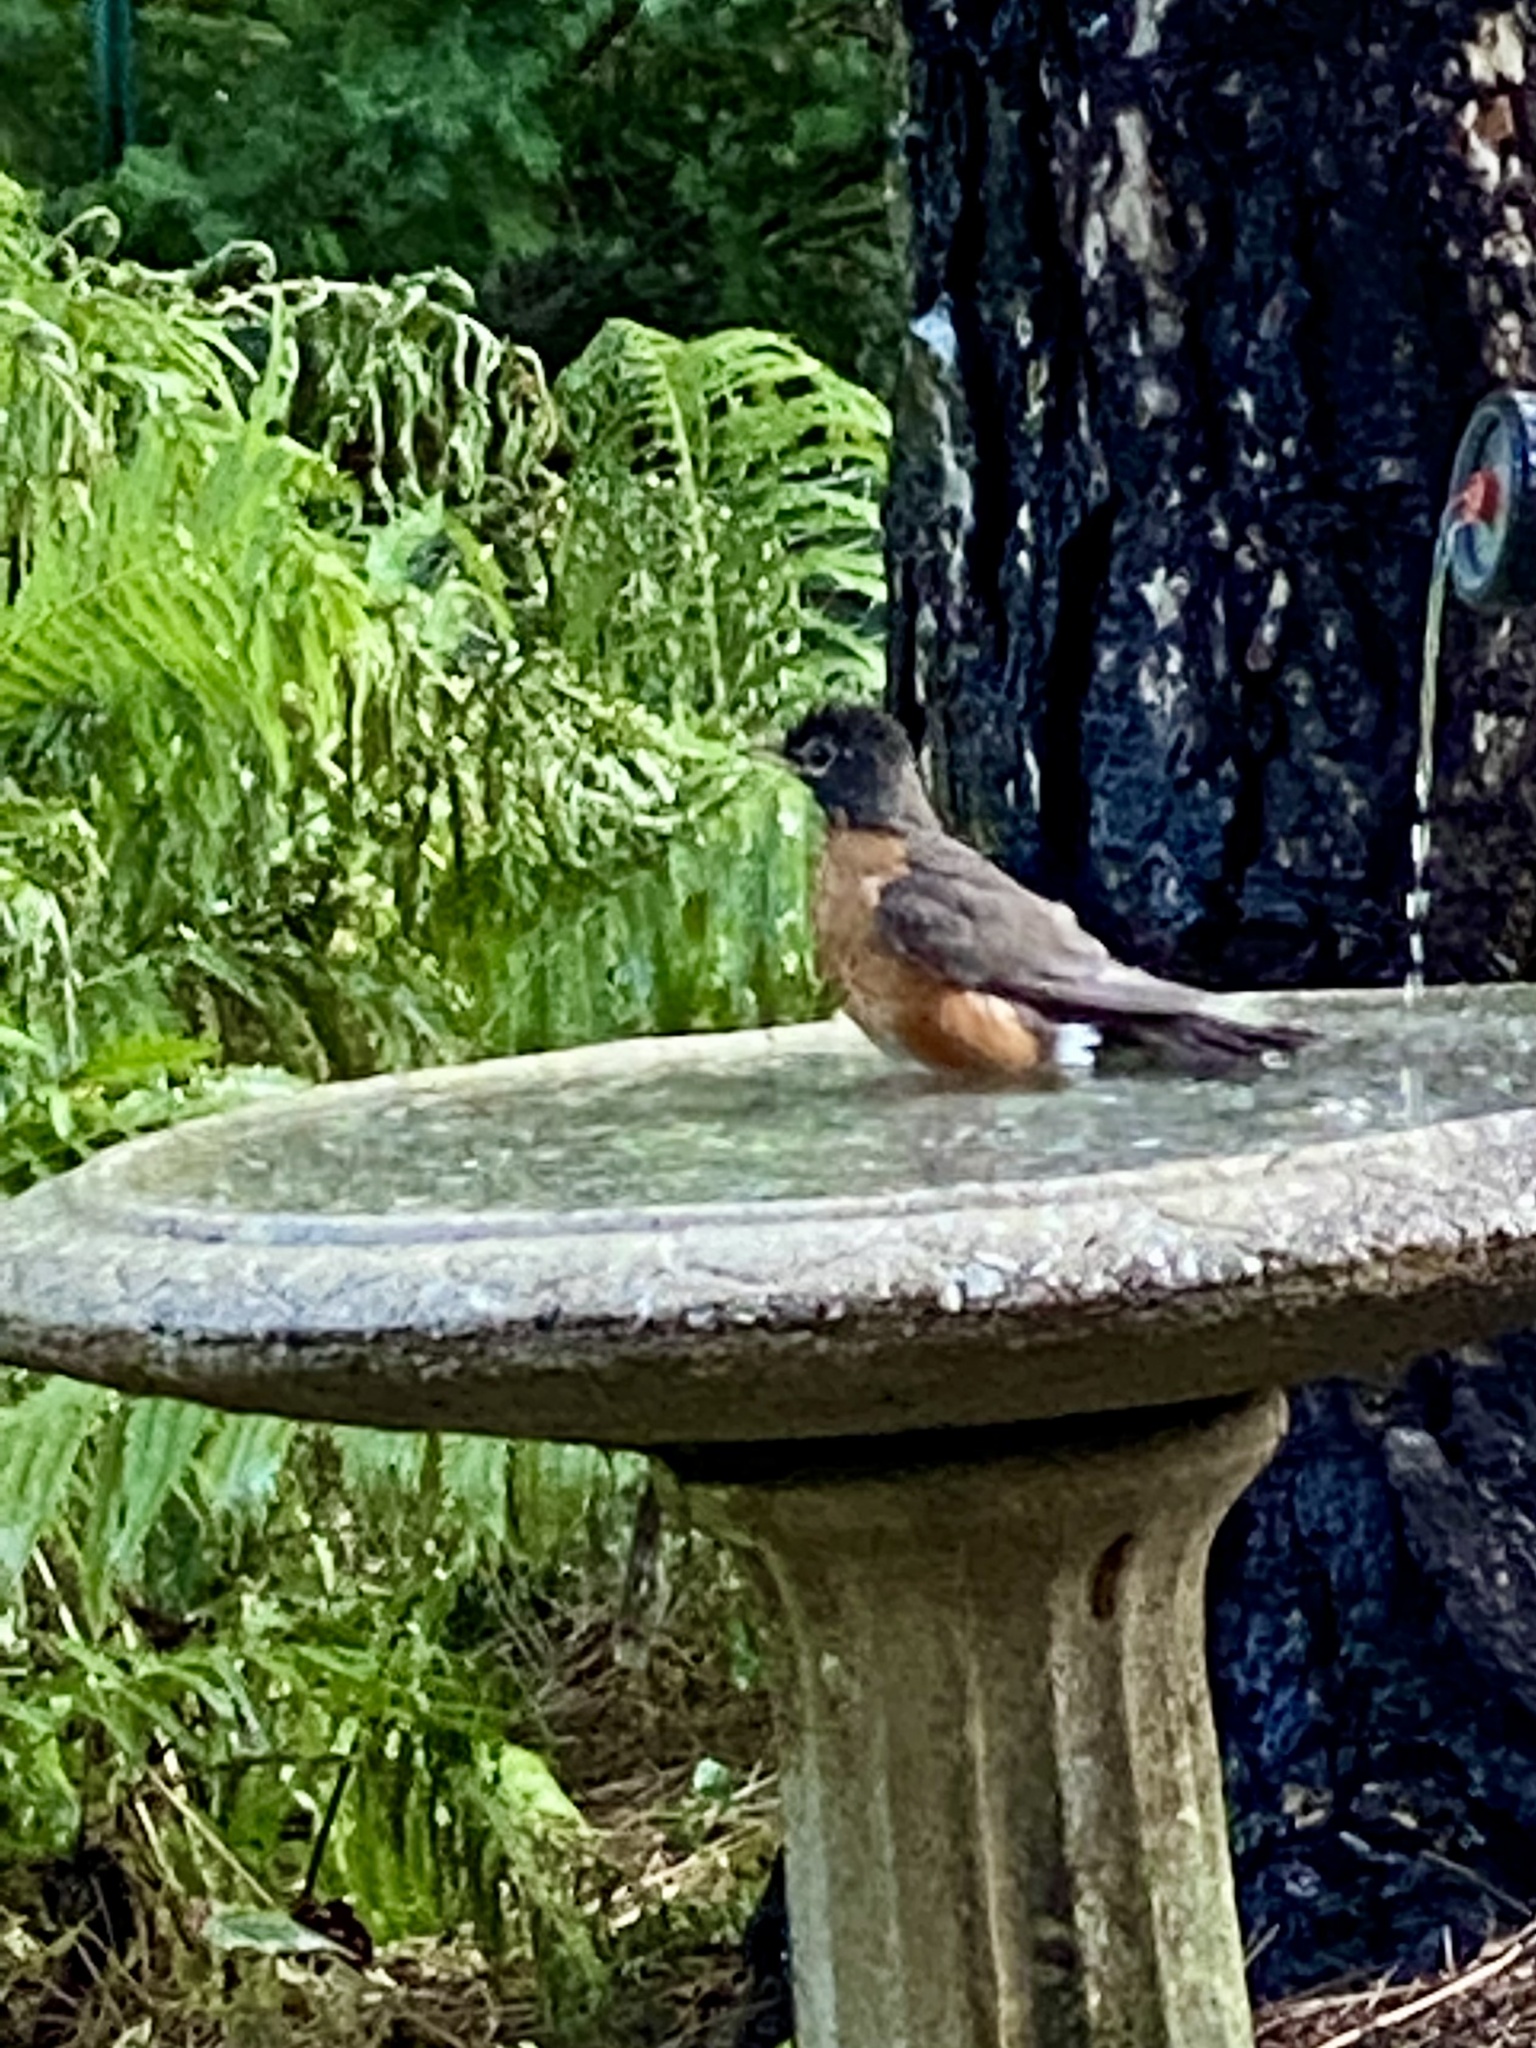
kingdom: Animalia
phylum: Chordata
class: Aves
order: Passeriformes
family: Turdidae
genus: Turdus
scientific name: Turdus migratorius
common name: American robin
